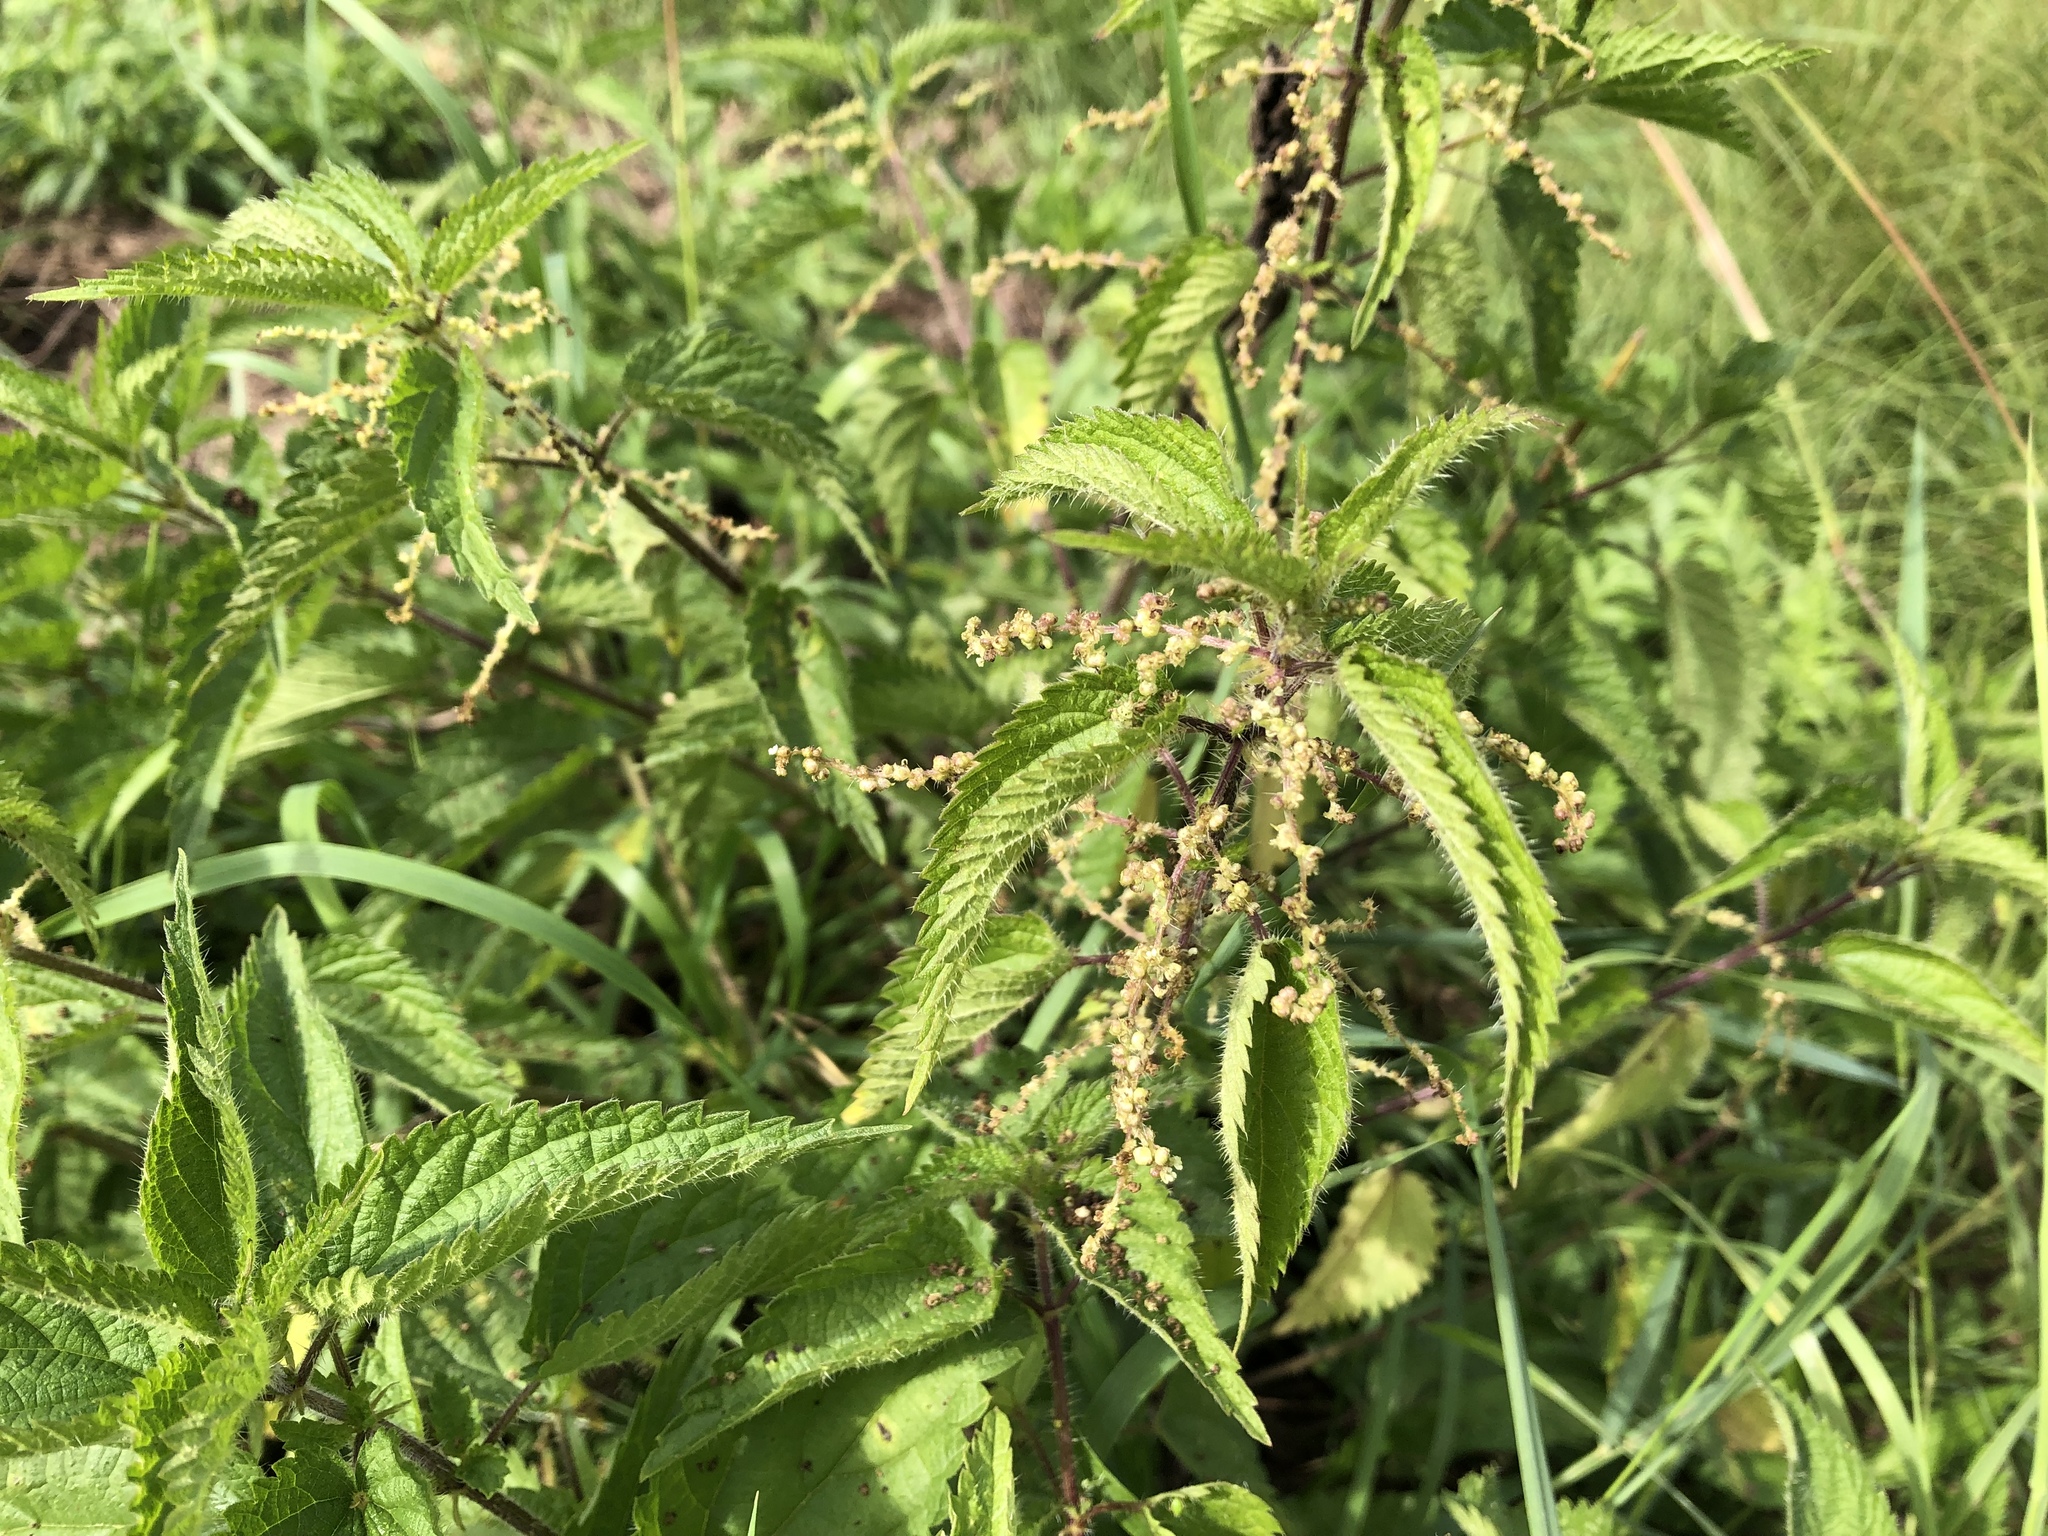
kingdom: Plantae
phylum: Tracheophyta
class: Magnoliopsida
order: Rosales
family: Urticaceae
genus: Urtica
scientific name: Urtica dioica
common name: Common nettle
